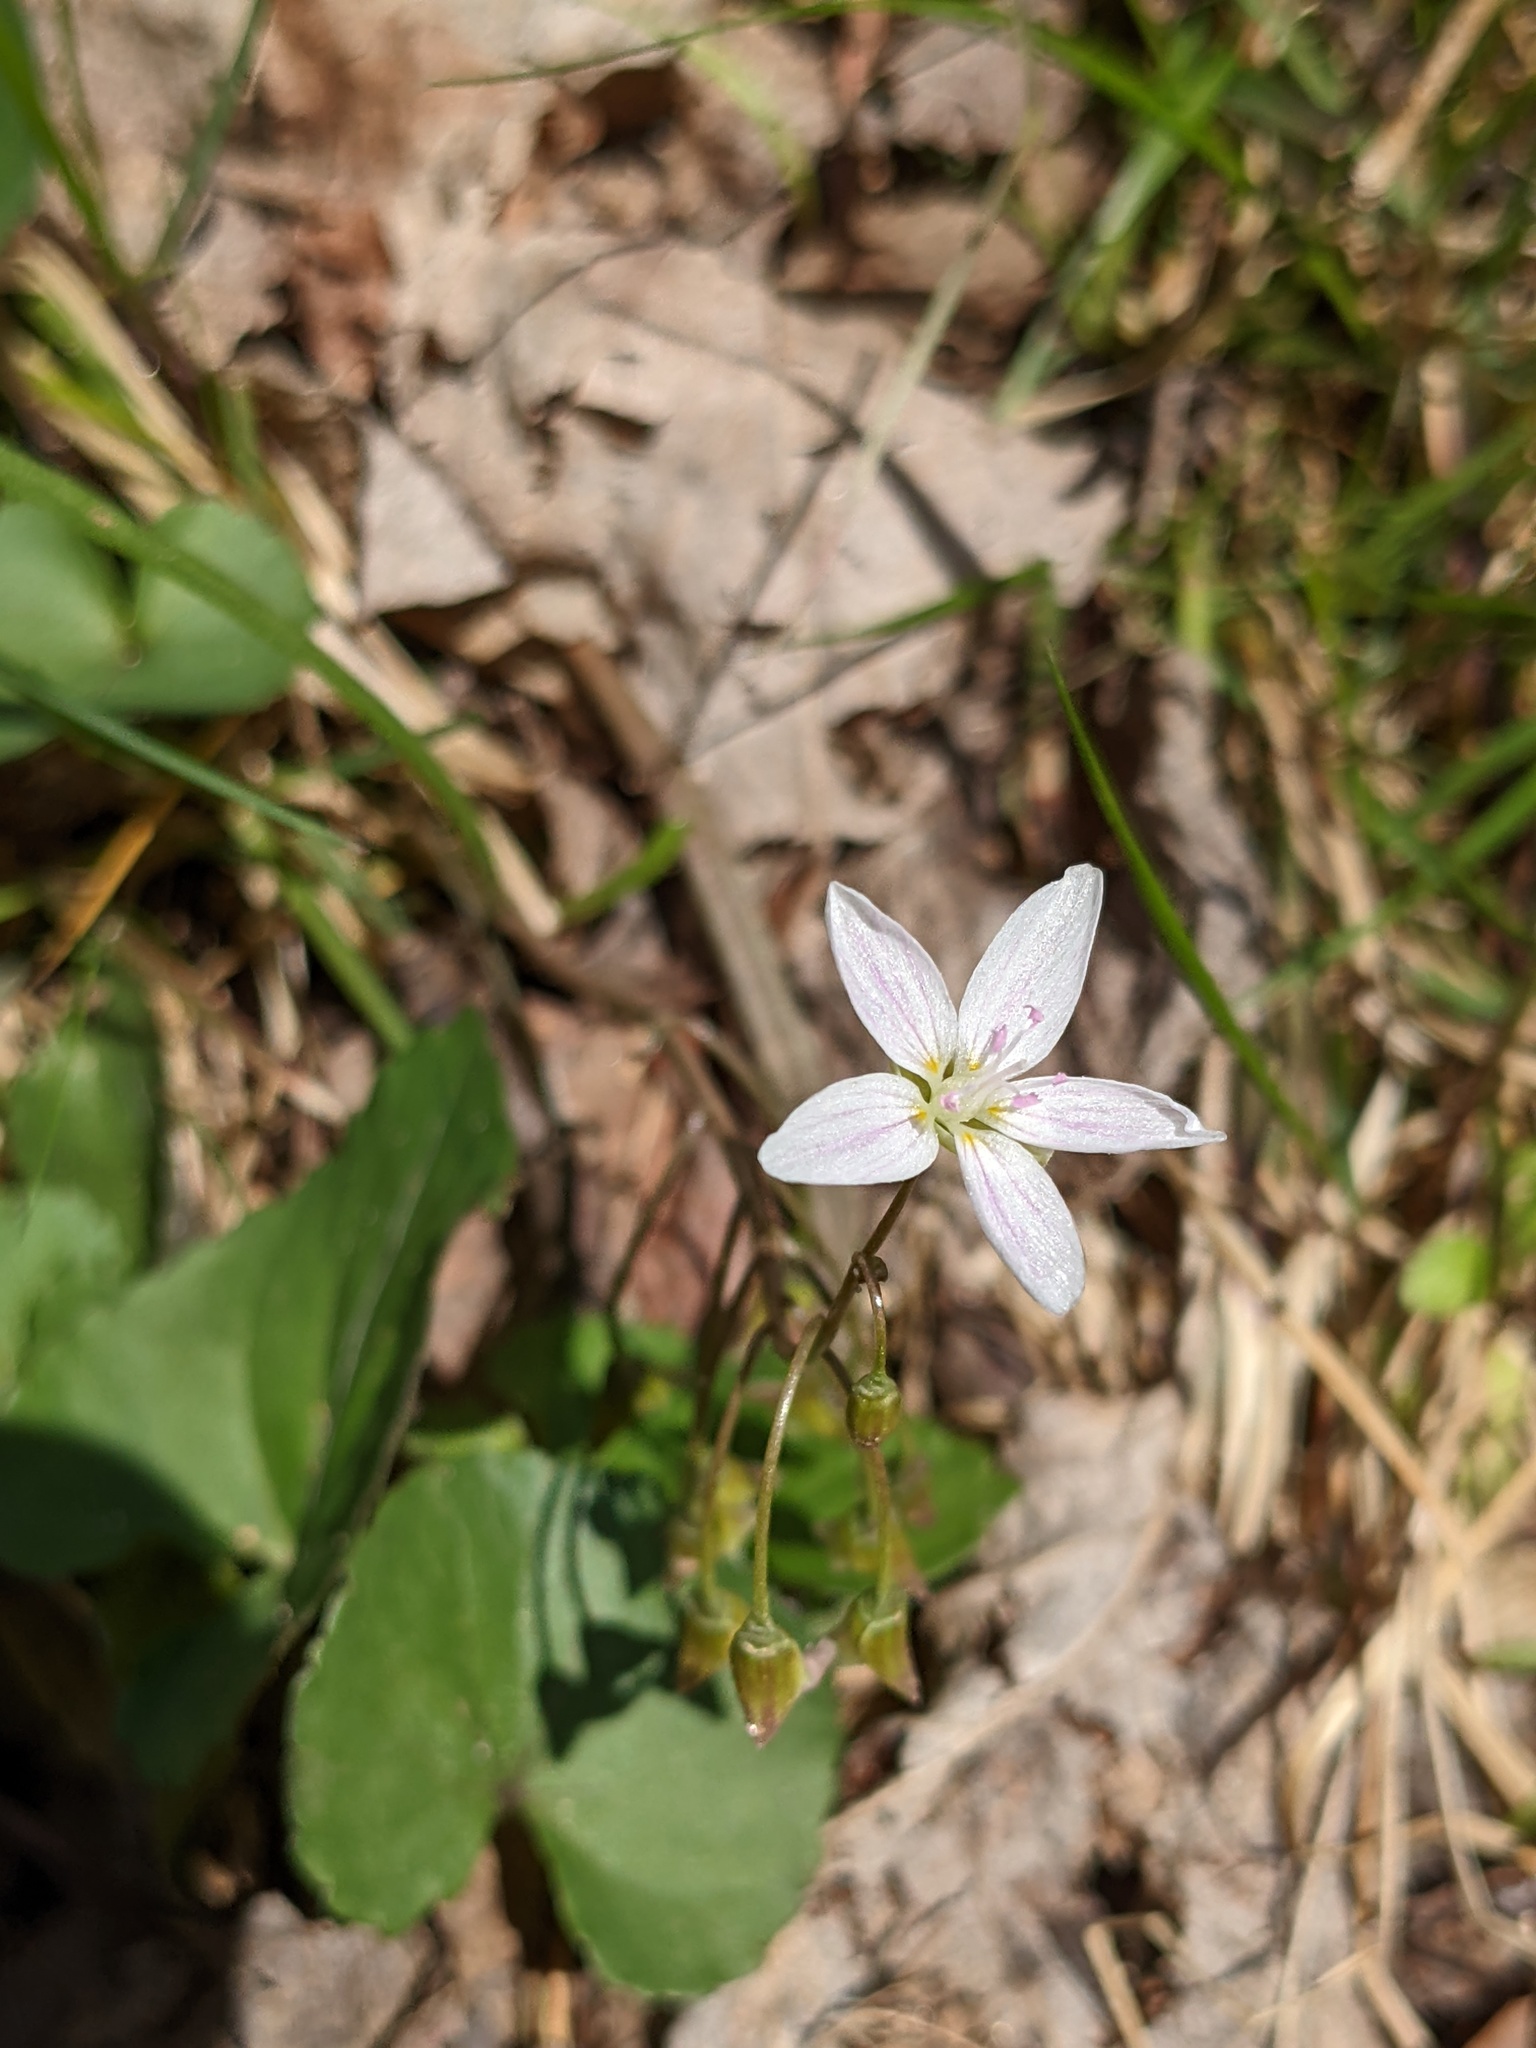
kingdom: Plantae
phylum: Tracheophyta
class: Magnoliopsida
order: Caryophyllales
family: Montiaceae
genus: Claytonia
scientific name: Claytonia virginica
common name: Virginia springbeauty
